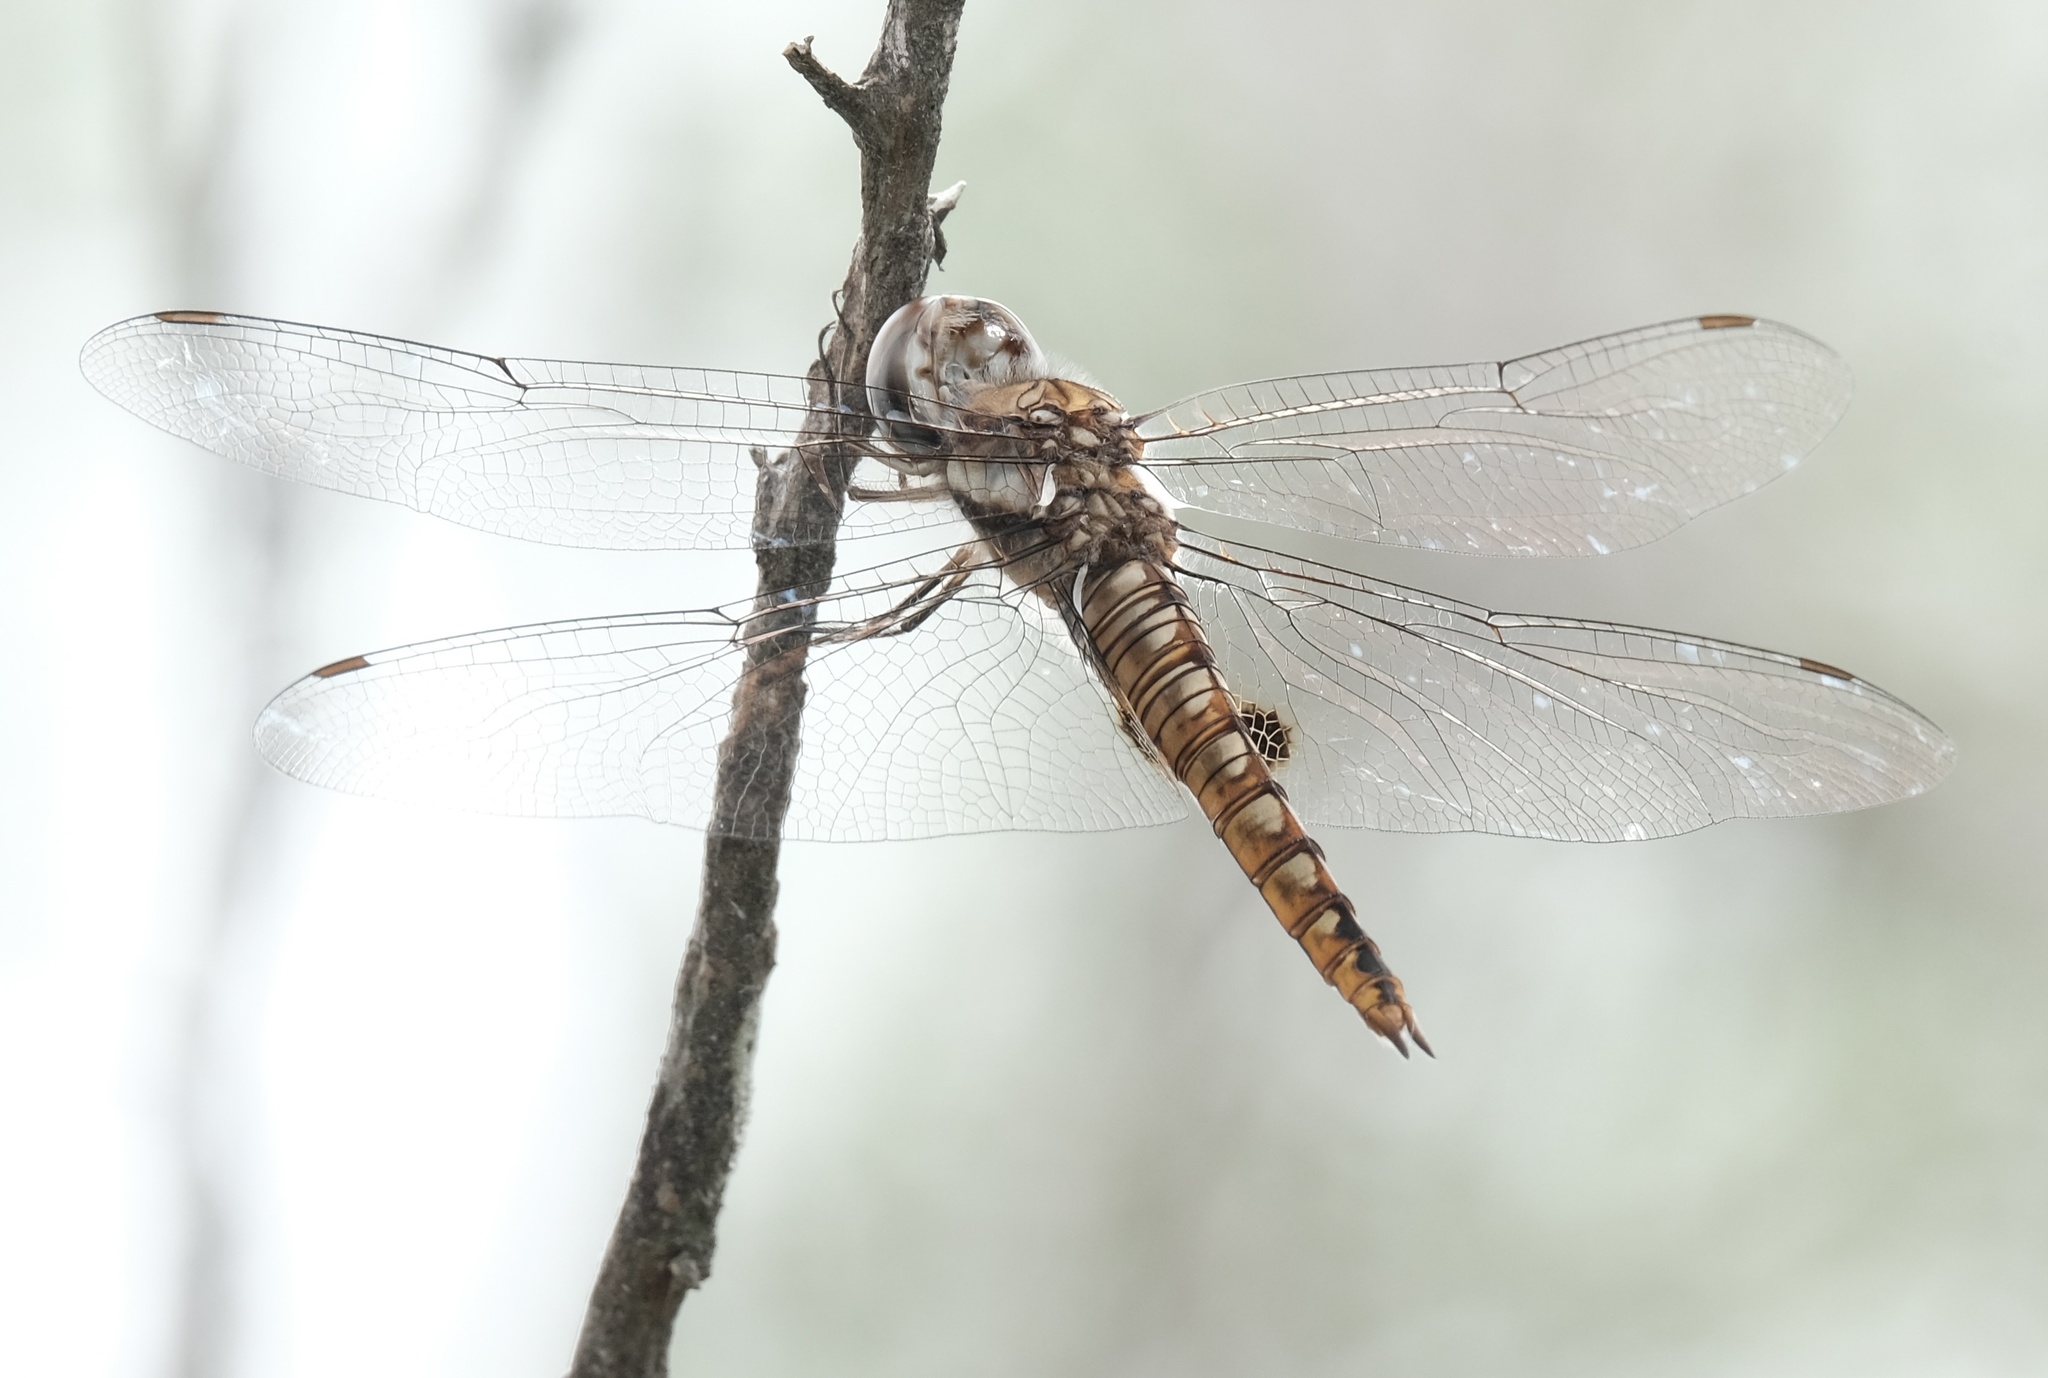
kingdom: Animalia
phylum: Arthropoda
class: Insecta
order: Odonata
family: Libellulidae
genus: Pantala
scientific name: Pantala hymenaea
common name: Spot-winged glider
